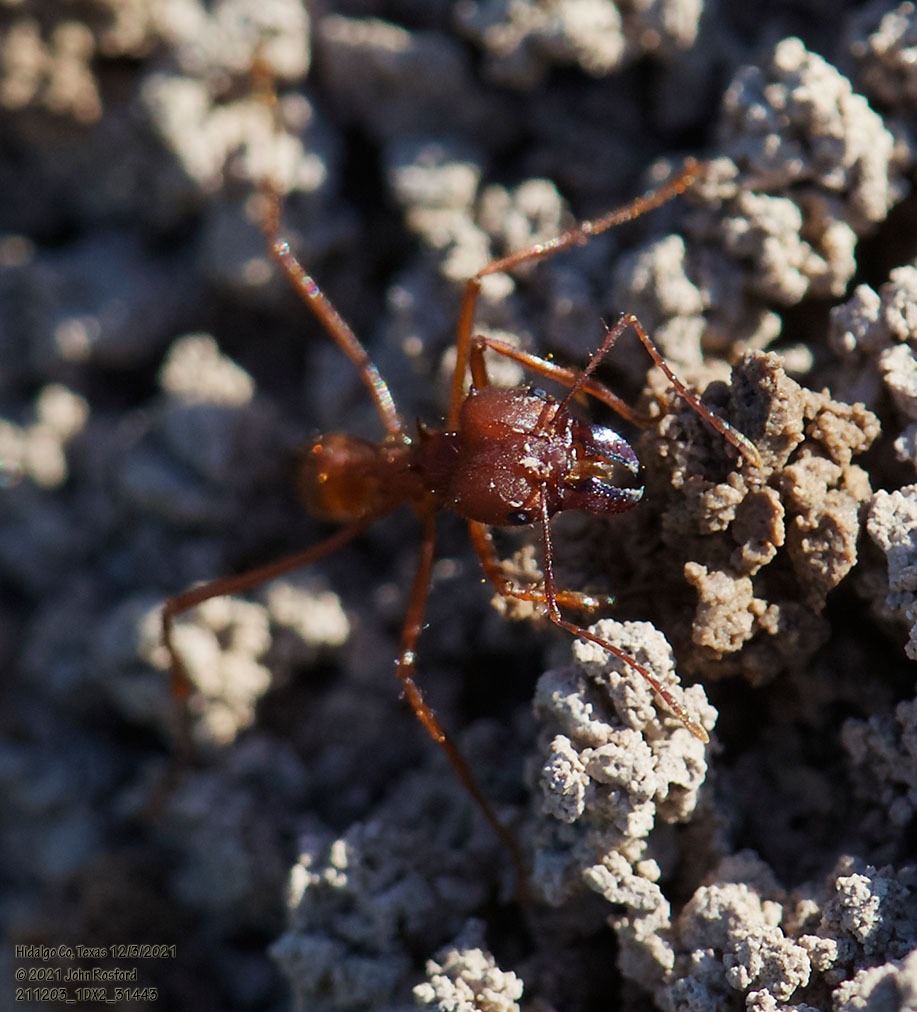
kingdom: Animalia
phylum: Arthropoda
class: Insecta
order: Hymenoptera
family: Formicidae
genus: Atta
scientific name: Atta texana
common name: Texas leafcutting ant
